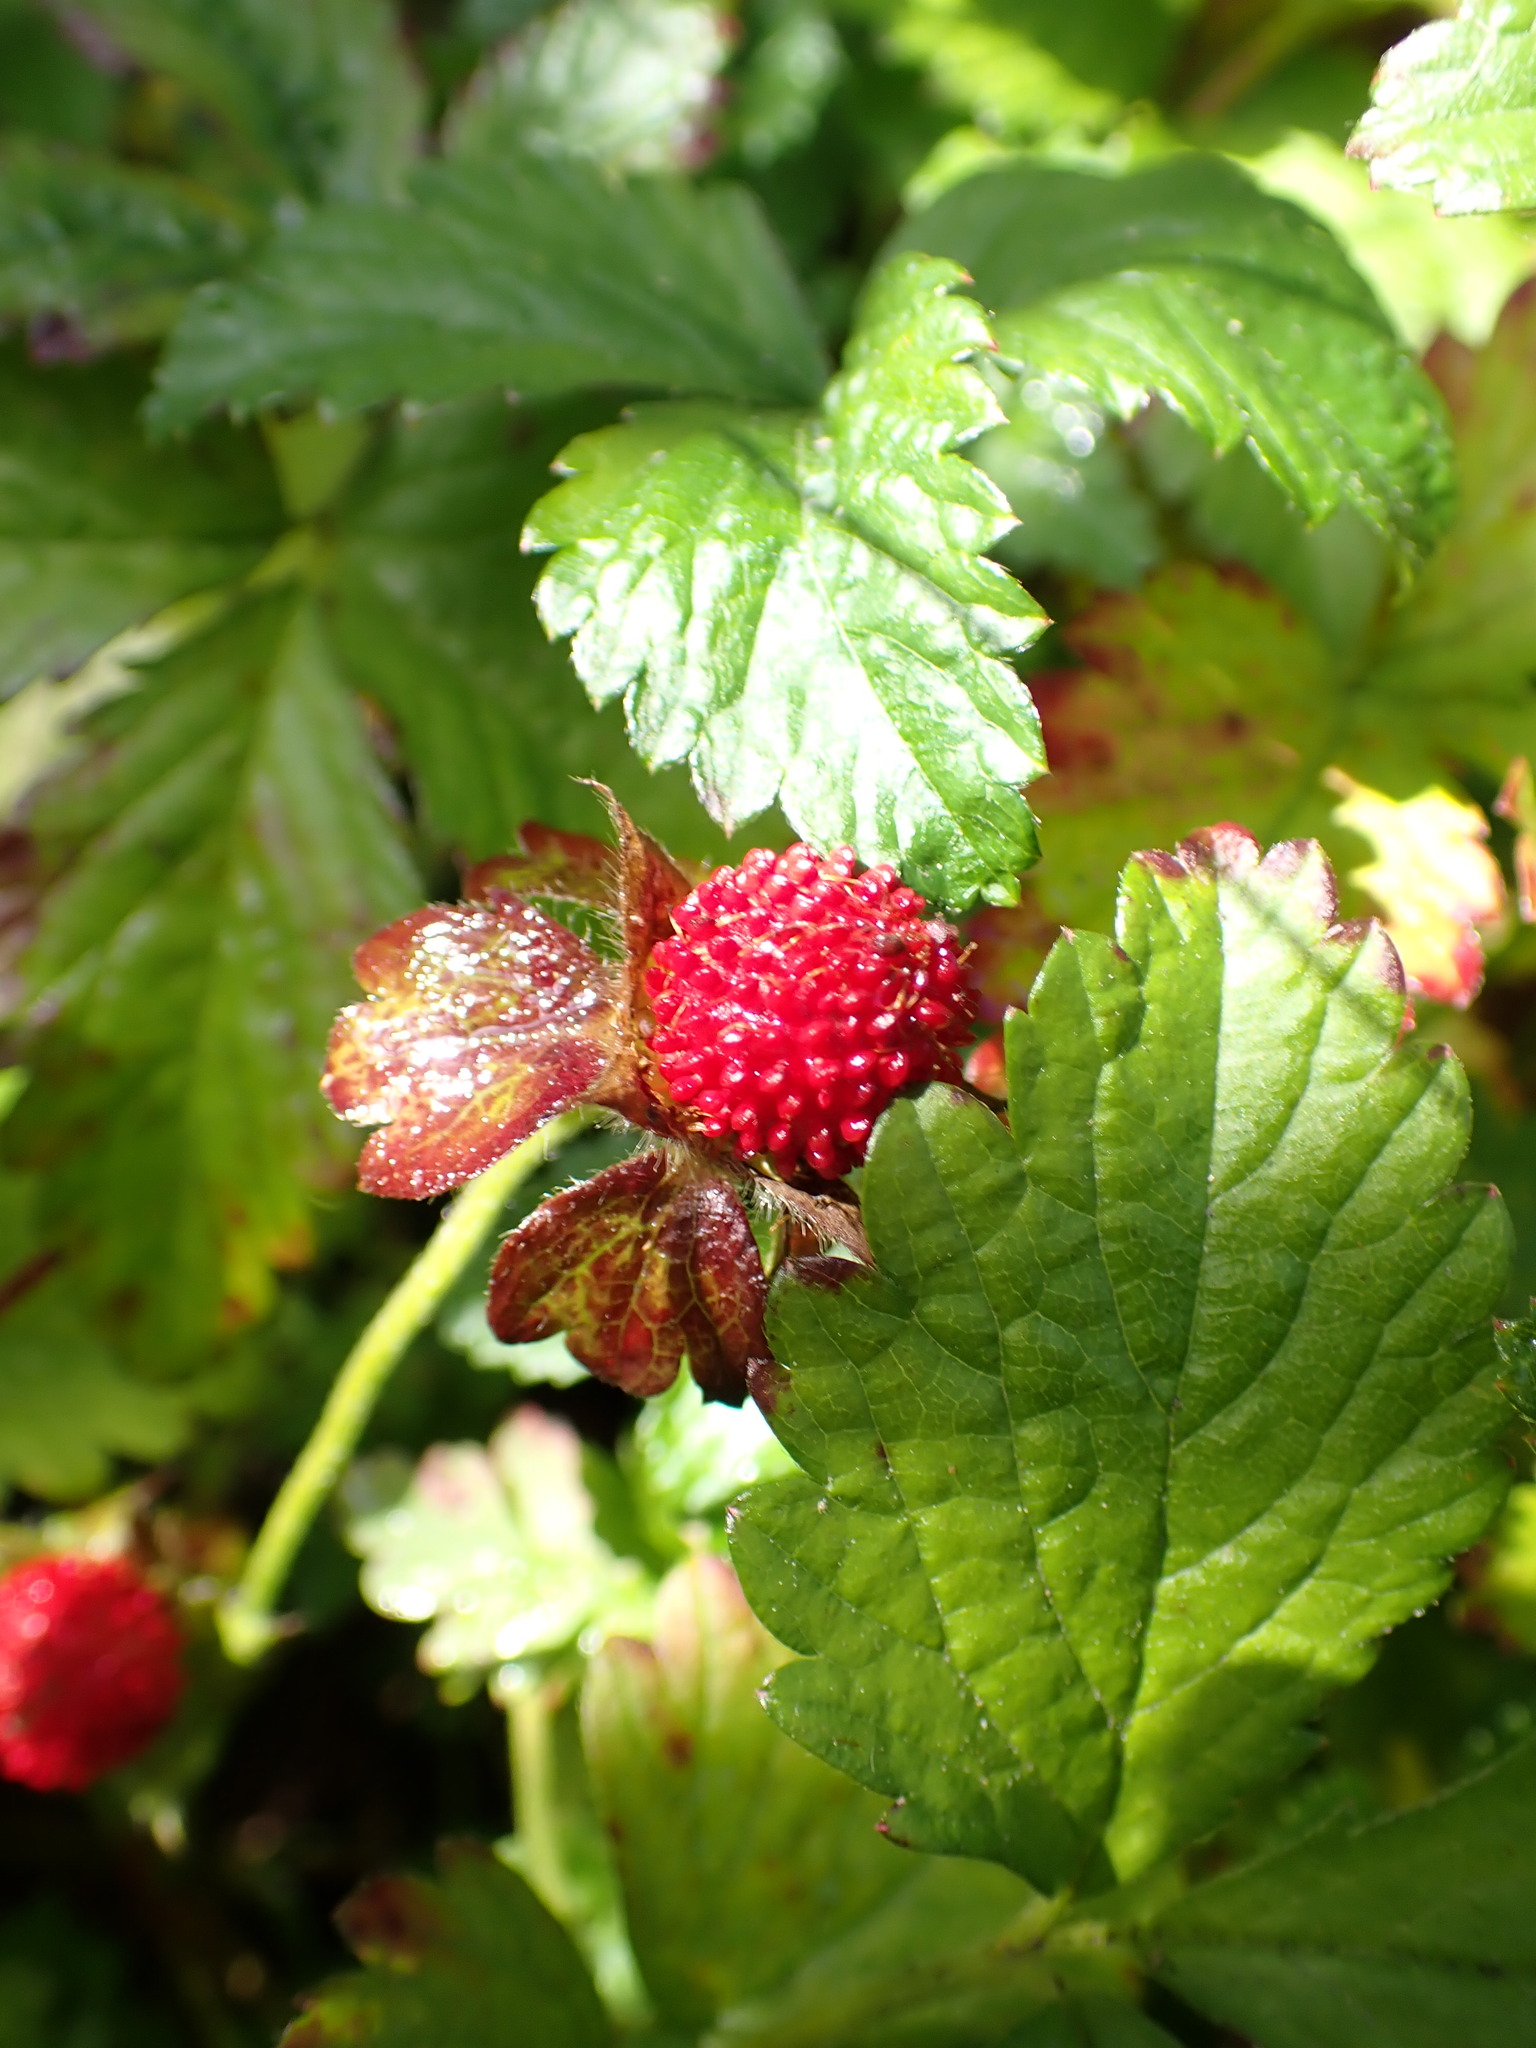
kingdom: Plantae
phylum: Tracheophyta
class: Magnoliopsida
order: Rosales
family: Rosaceae
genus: Potentilla
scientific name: Potentilla indica
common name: Yellow-flowered strawberry
